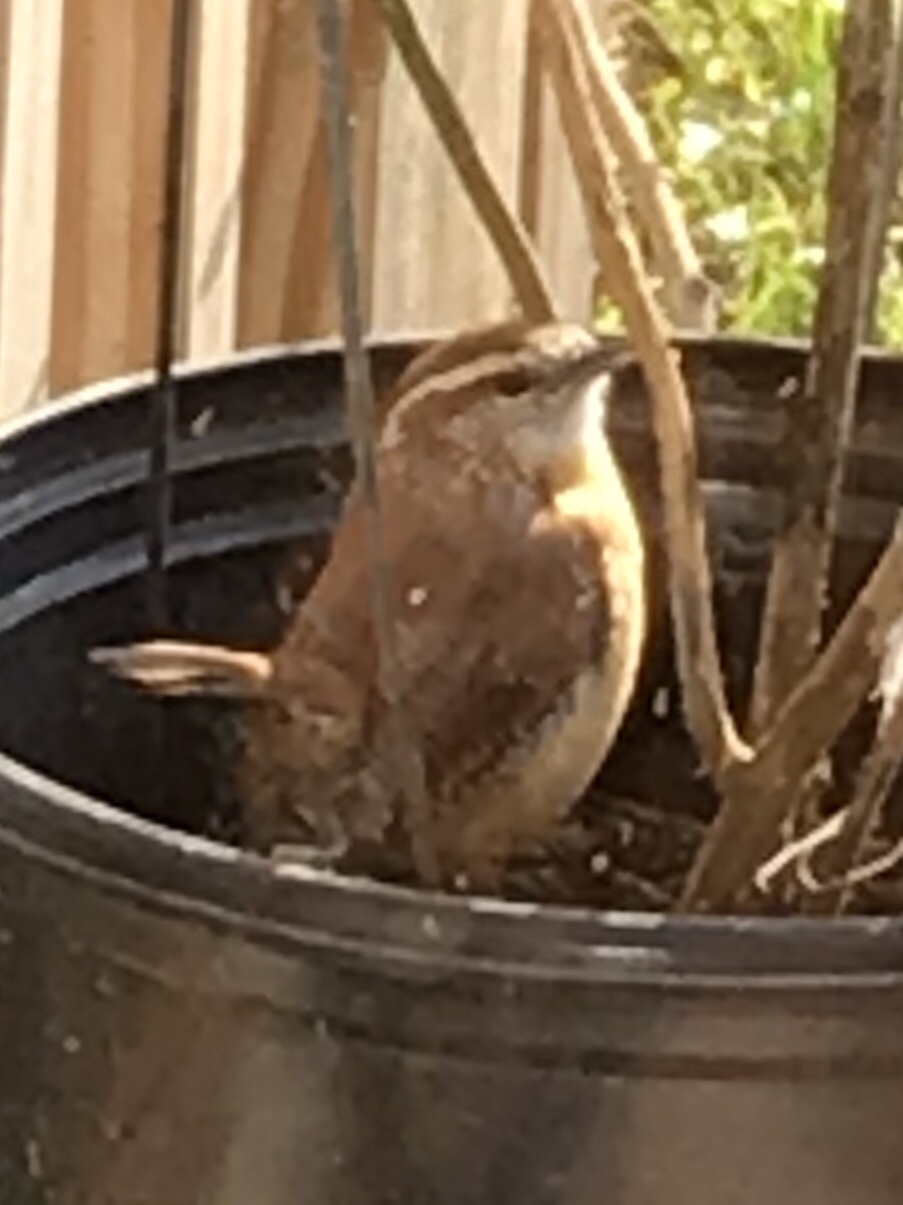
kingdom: Animalia
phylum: Chordata
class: Aves
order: Passeriformes
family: Troglodytidae
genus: Thryothorus
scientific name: Thryothorus ludovicianus
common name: Carolina wren
